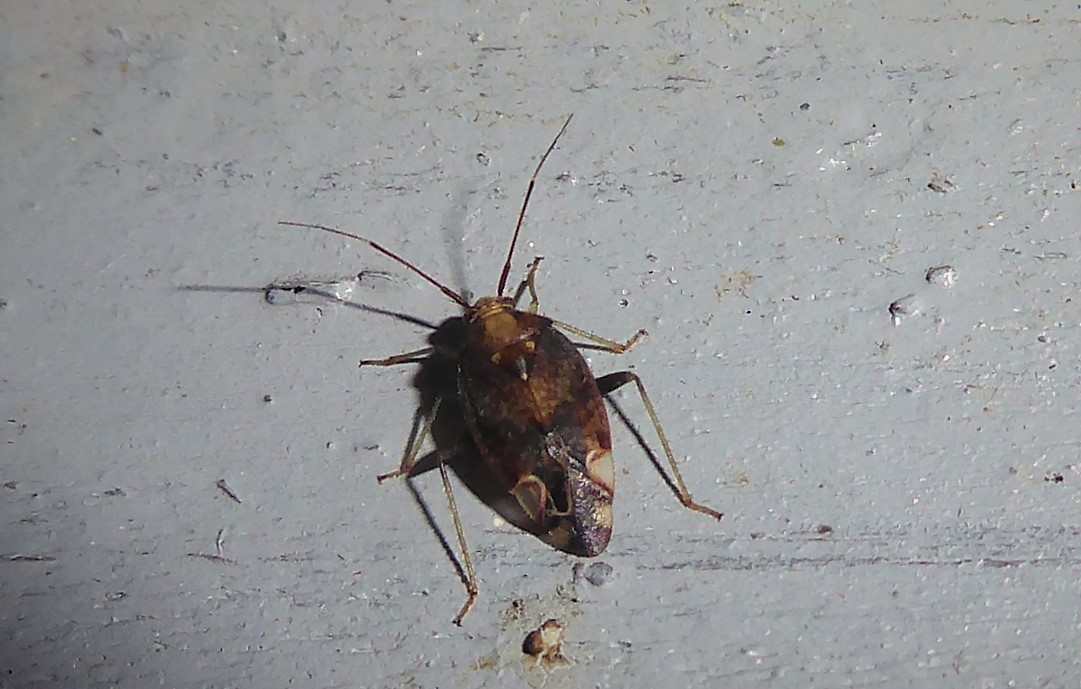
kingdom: Animalia
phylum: Arthropoda
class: Insecta
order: Hemiptera
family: Miridae
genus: Chinamiris
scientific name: Chinamiris indeclivis
